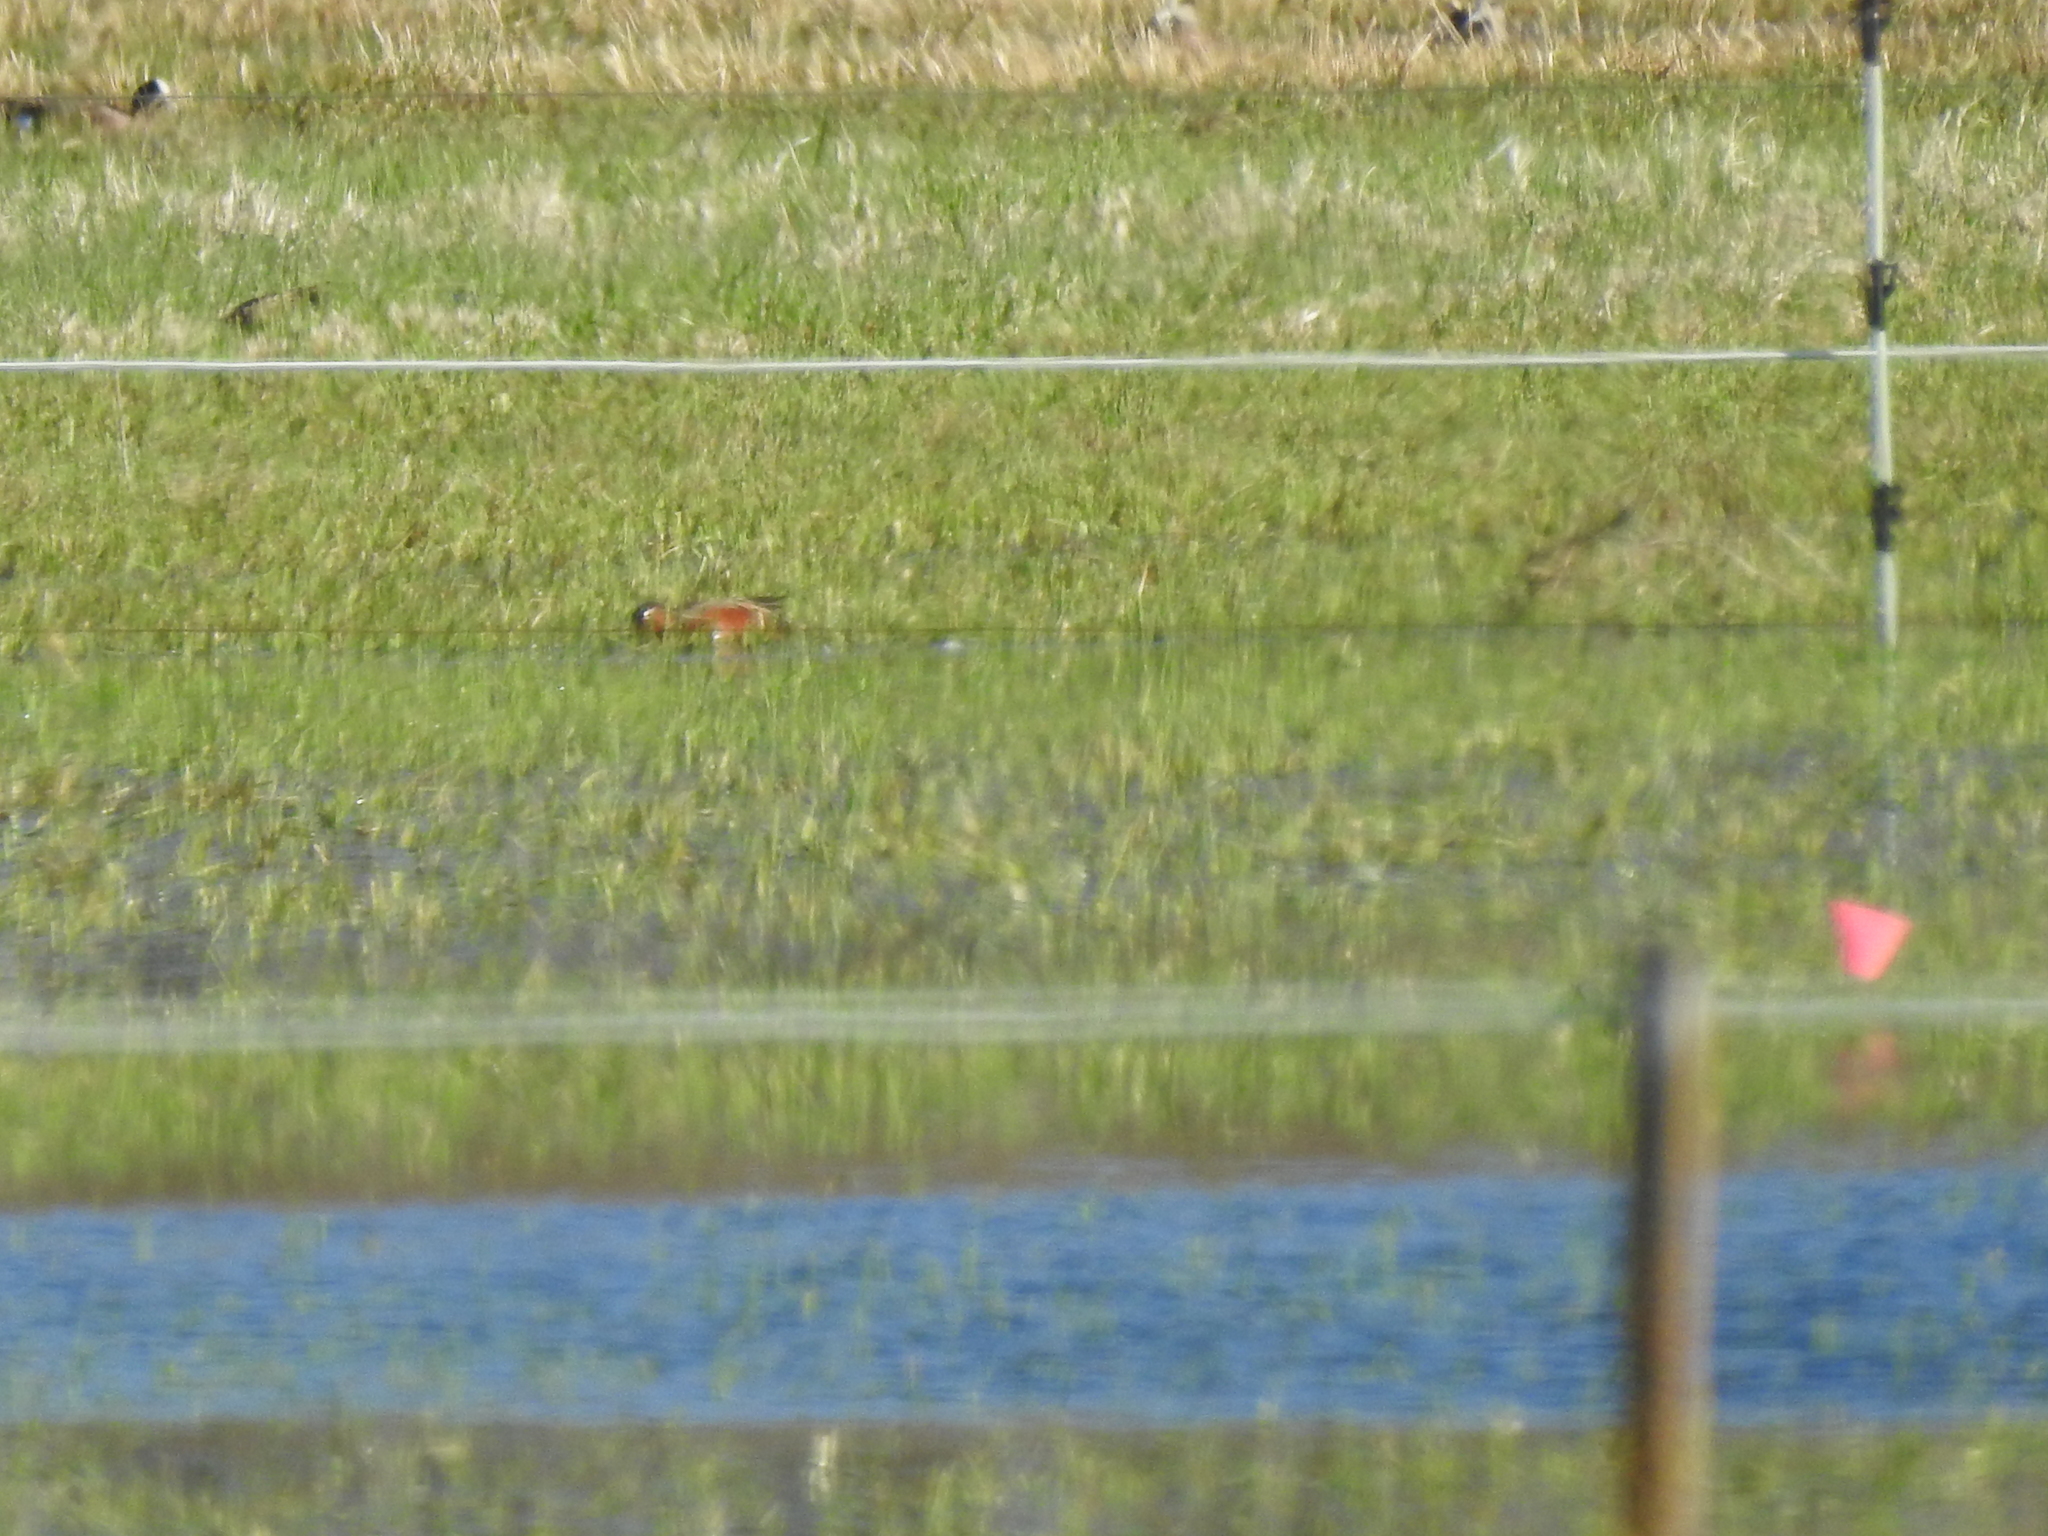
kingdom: Animalia
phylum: Chordata
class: Aves
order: Anseriformes
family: Anatidae
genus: Spatula
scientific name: Spatula cyanoptera
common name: Cinnamon teal
